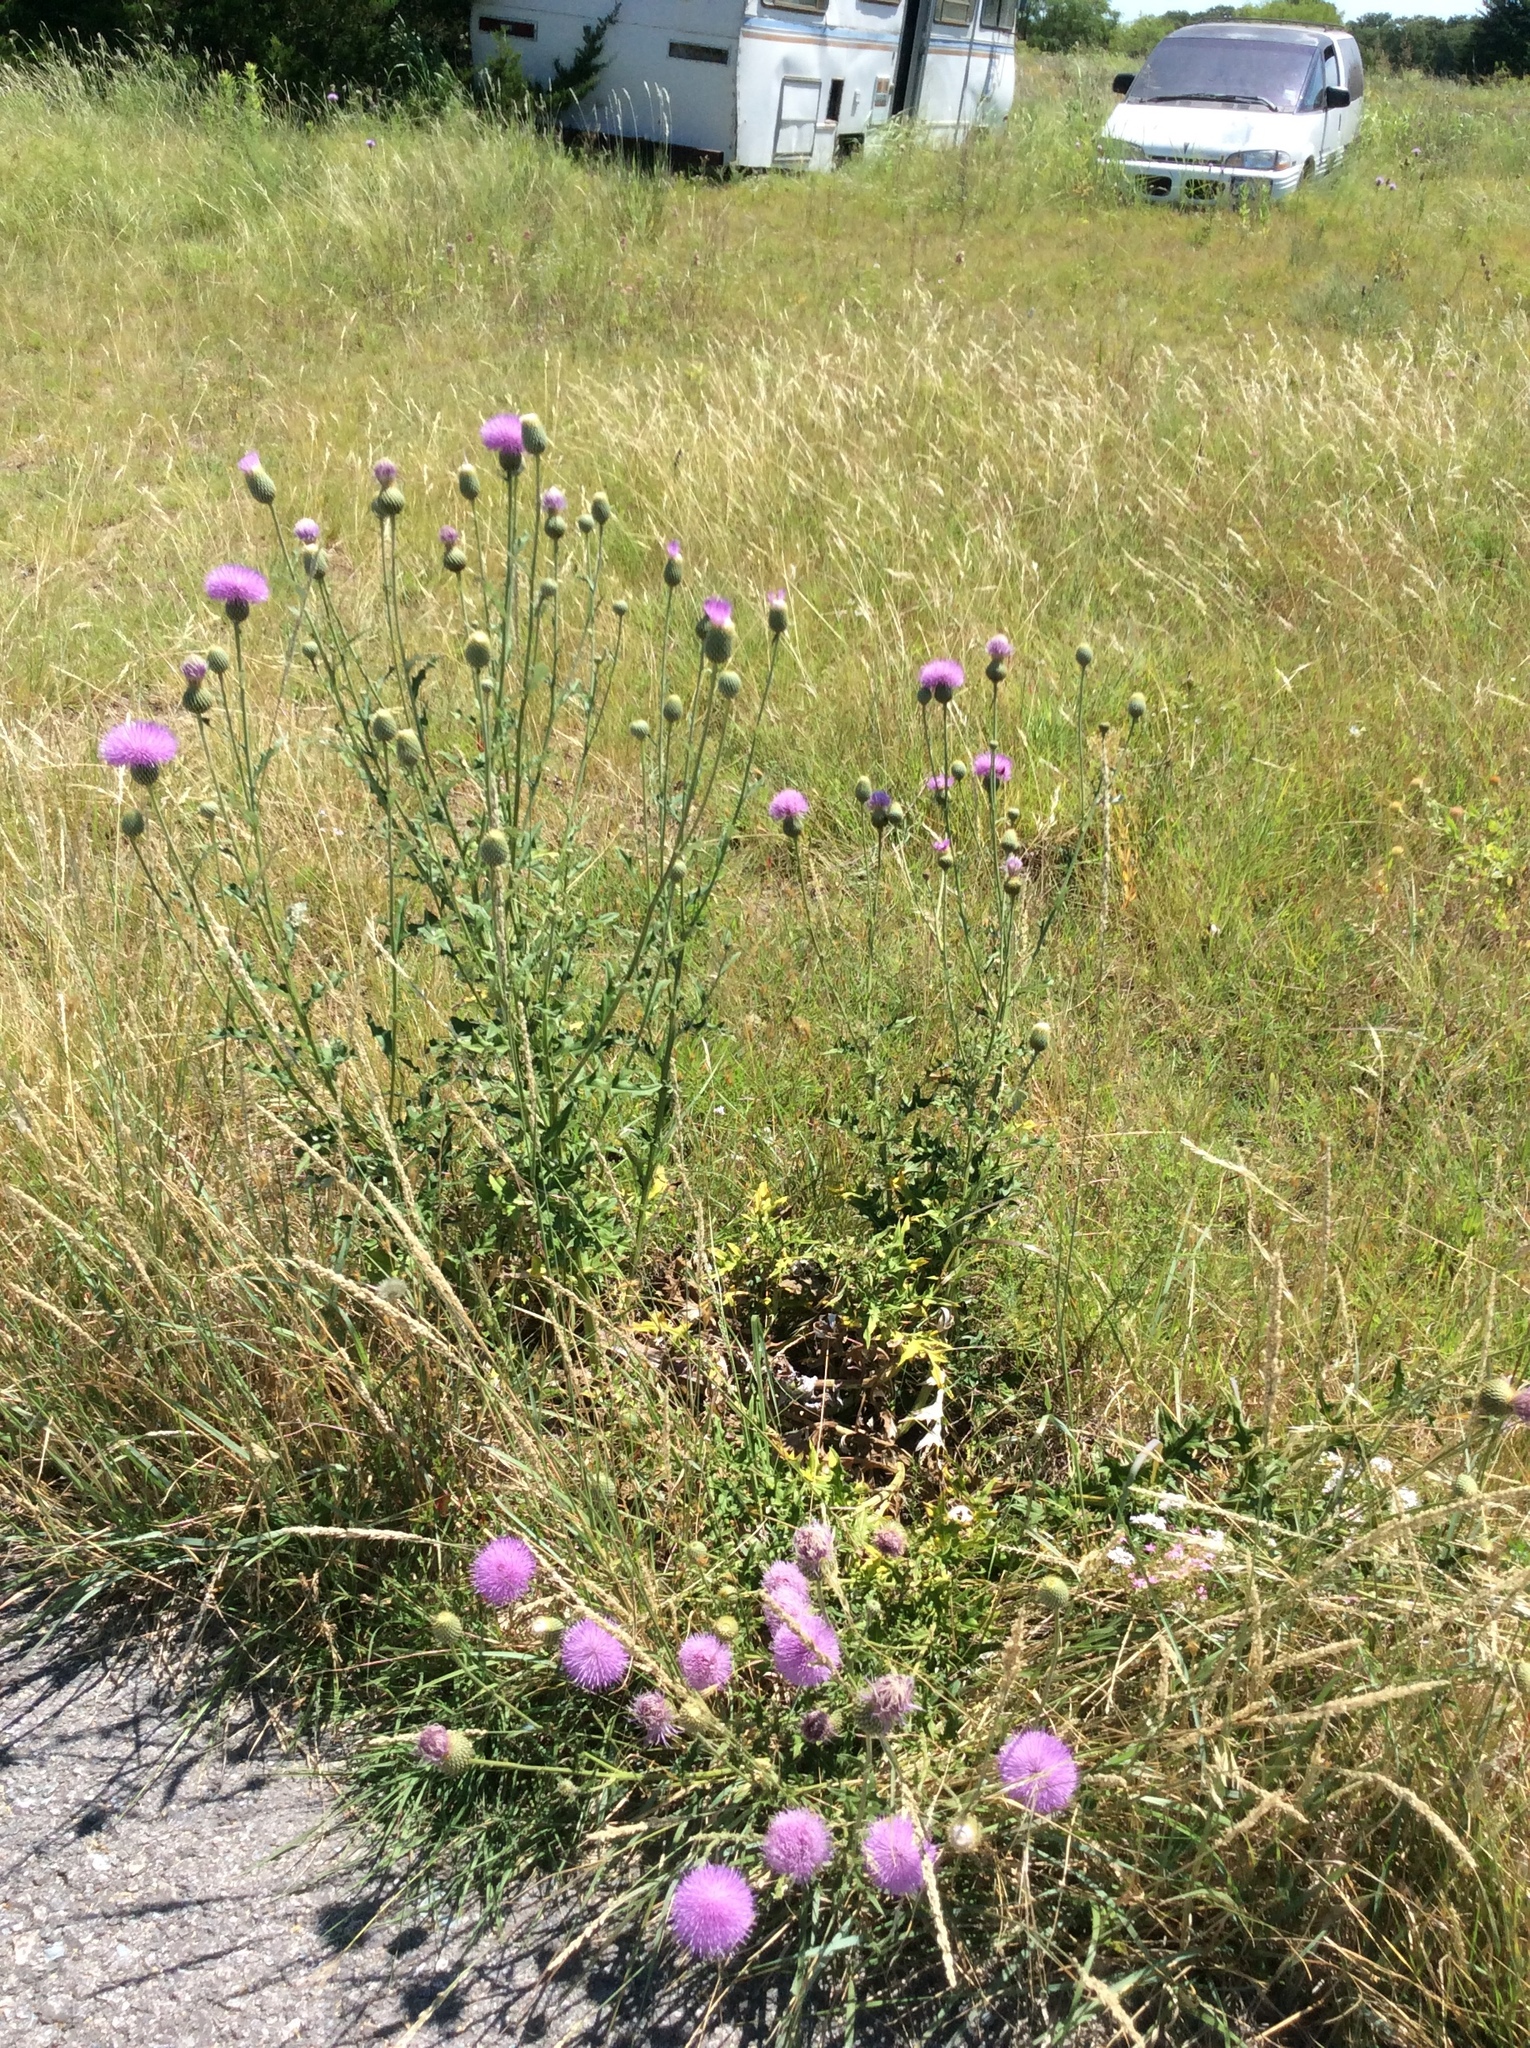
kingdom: Plantae
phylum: Tracheophyta
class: Magnoliopsida
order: Asterales
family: Asteraceae
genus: Cirsium
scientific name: Cirsium texanum
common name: Texas purple thistle
